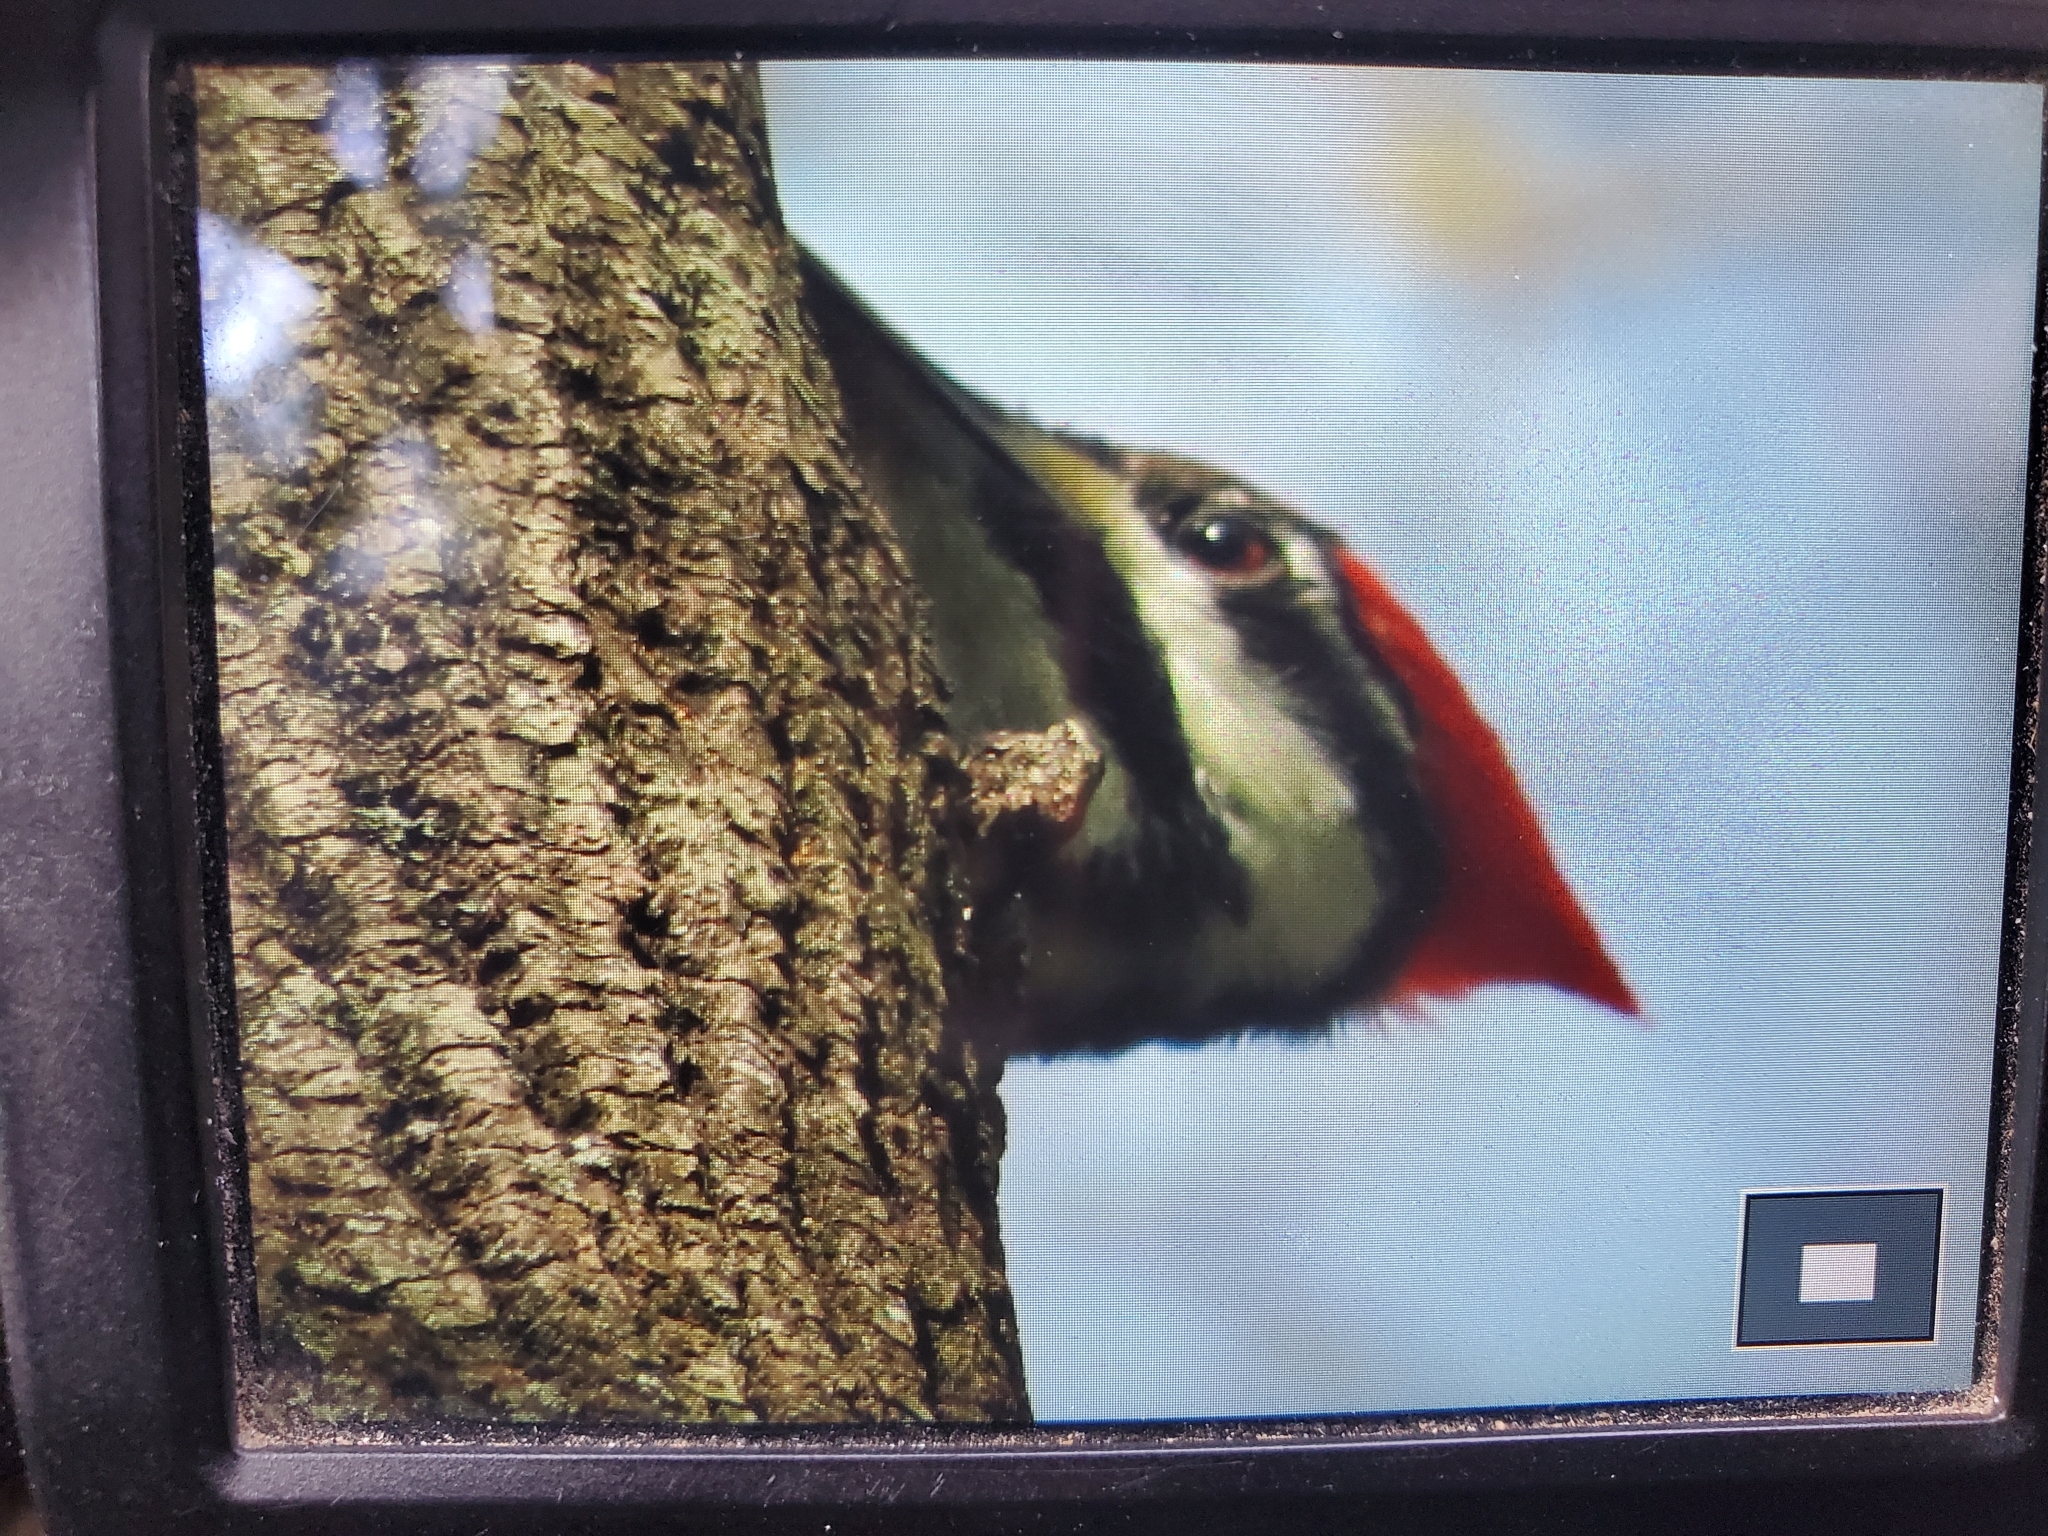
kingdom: Animalia
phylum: Chordata
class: Aves
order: Piciformes
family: Picidae
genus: Dryocopus
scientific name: Dryocopus pileatus
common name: Pileated woodpecker
